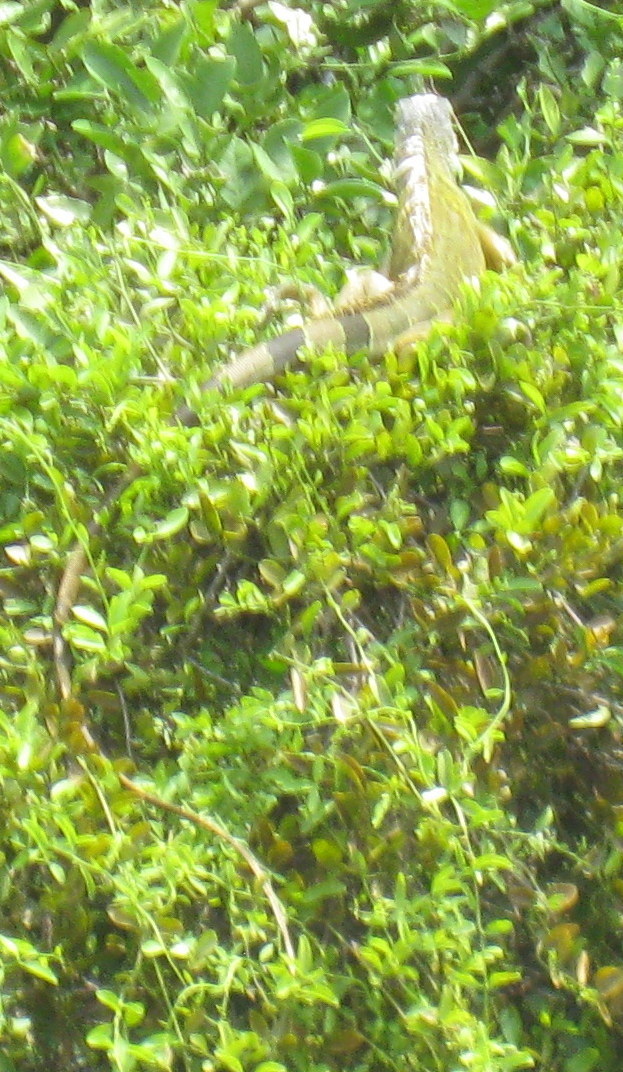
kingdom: Animalia
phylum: Chordata
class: Squamata
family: Iguanidae
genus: Iguana
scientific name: Iguana iguana
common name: Green iguana
